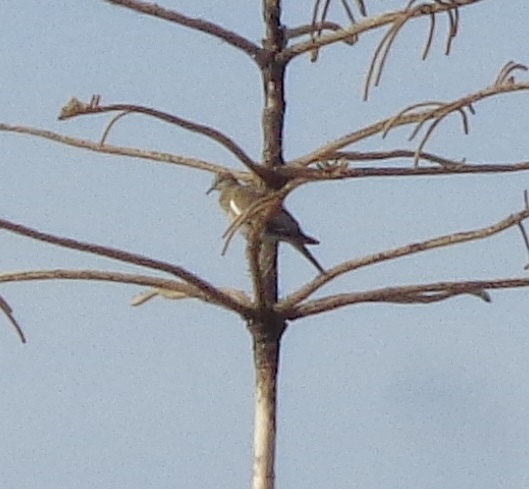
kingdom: Animalia
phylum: Chordata
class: Aves
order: Columbiformes
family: Columbidae
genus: Zenaida
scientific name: Zenaida asiatica
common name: White-winged dove
